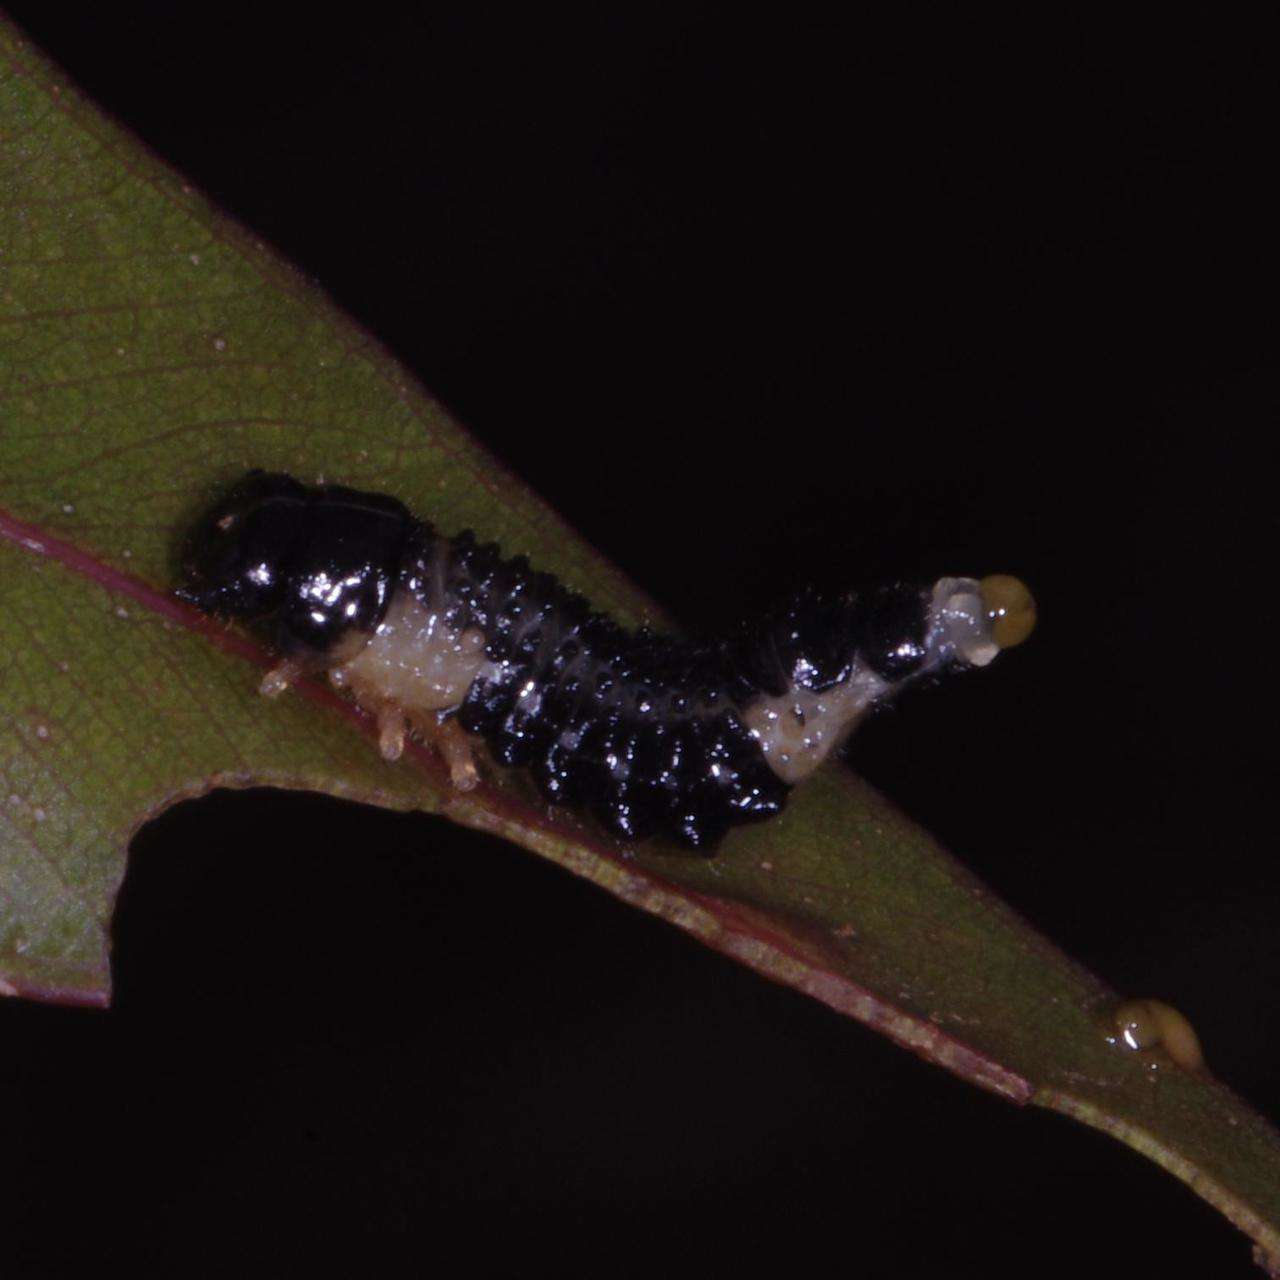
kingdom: Animalia
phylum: Arthropoda
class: Insecta
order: Coleoptera
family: Chrysomelidae
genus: Paropsis
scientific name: Paropsis
